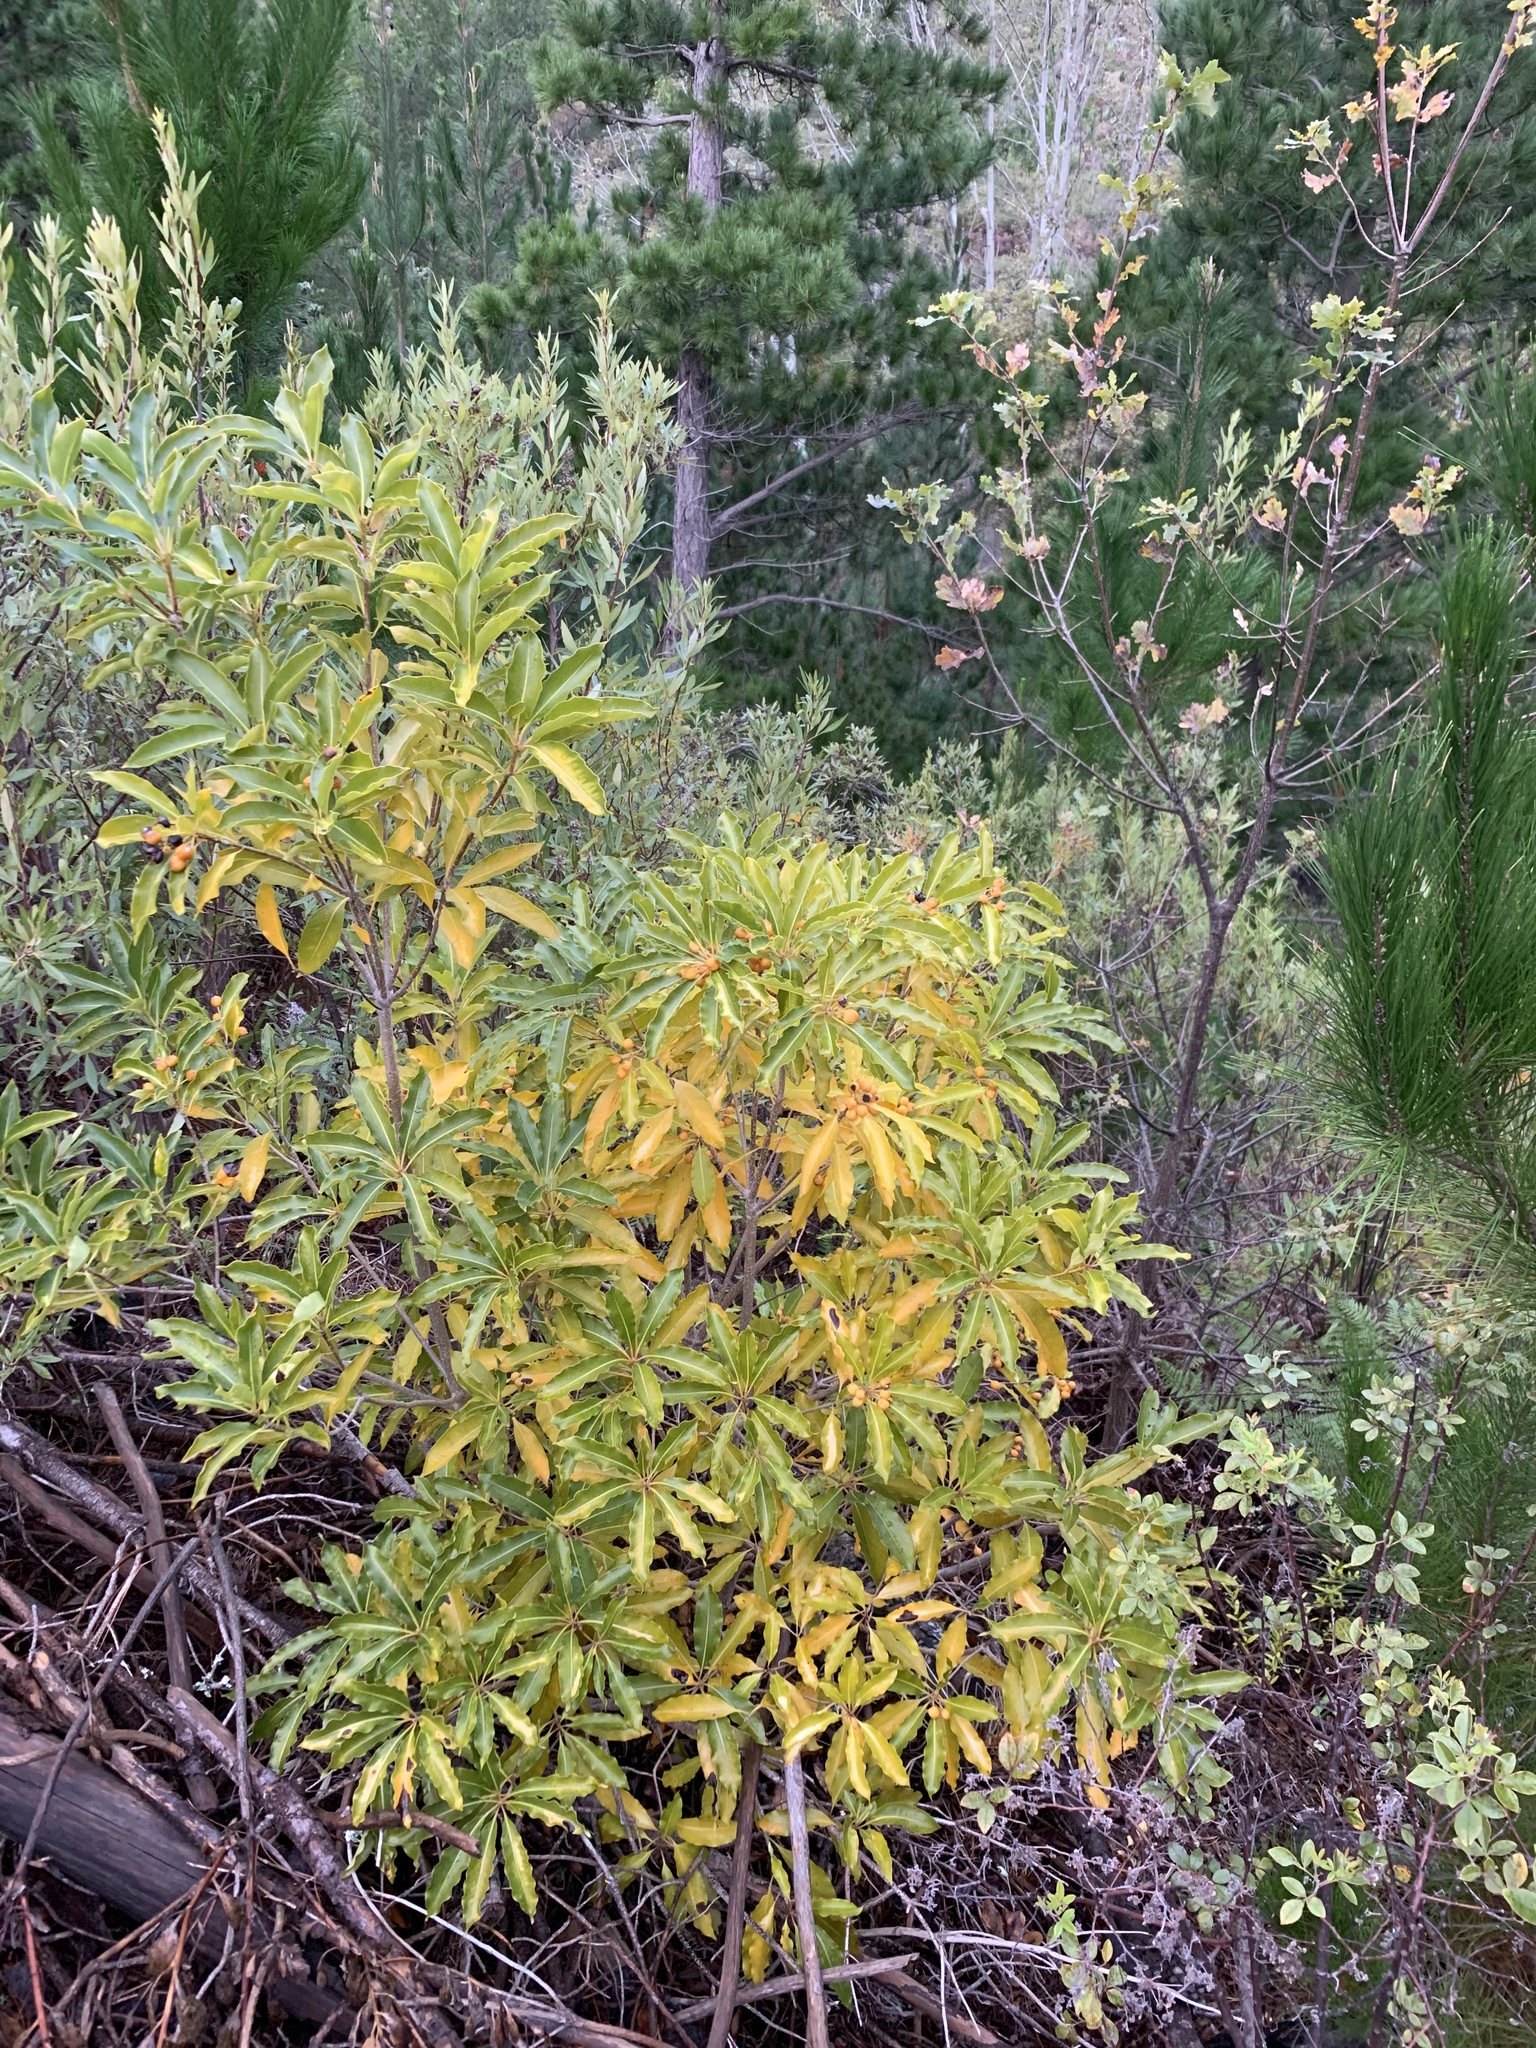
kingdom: Plantae
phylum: Tracheophyta
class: Magnoliopsida
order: Apiales
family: Pittosporaceae
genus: Pittosporum
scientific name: Pittosporum undulatum
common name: Australian cheesewood
